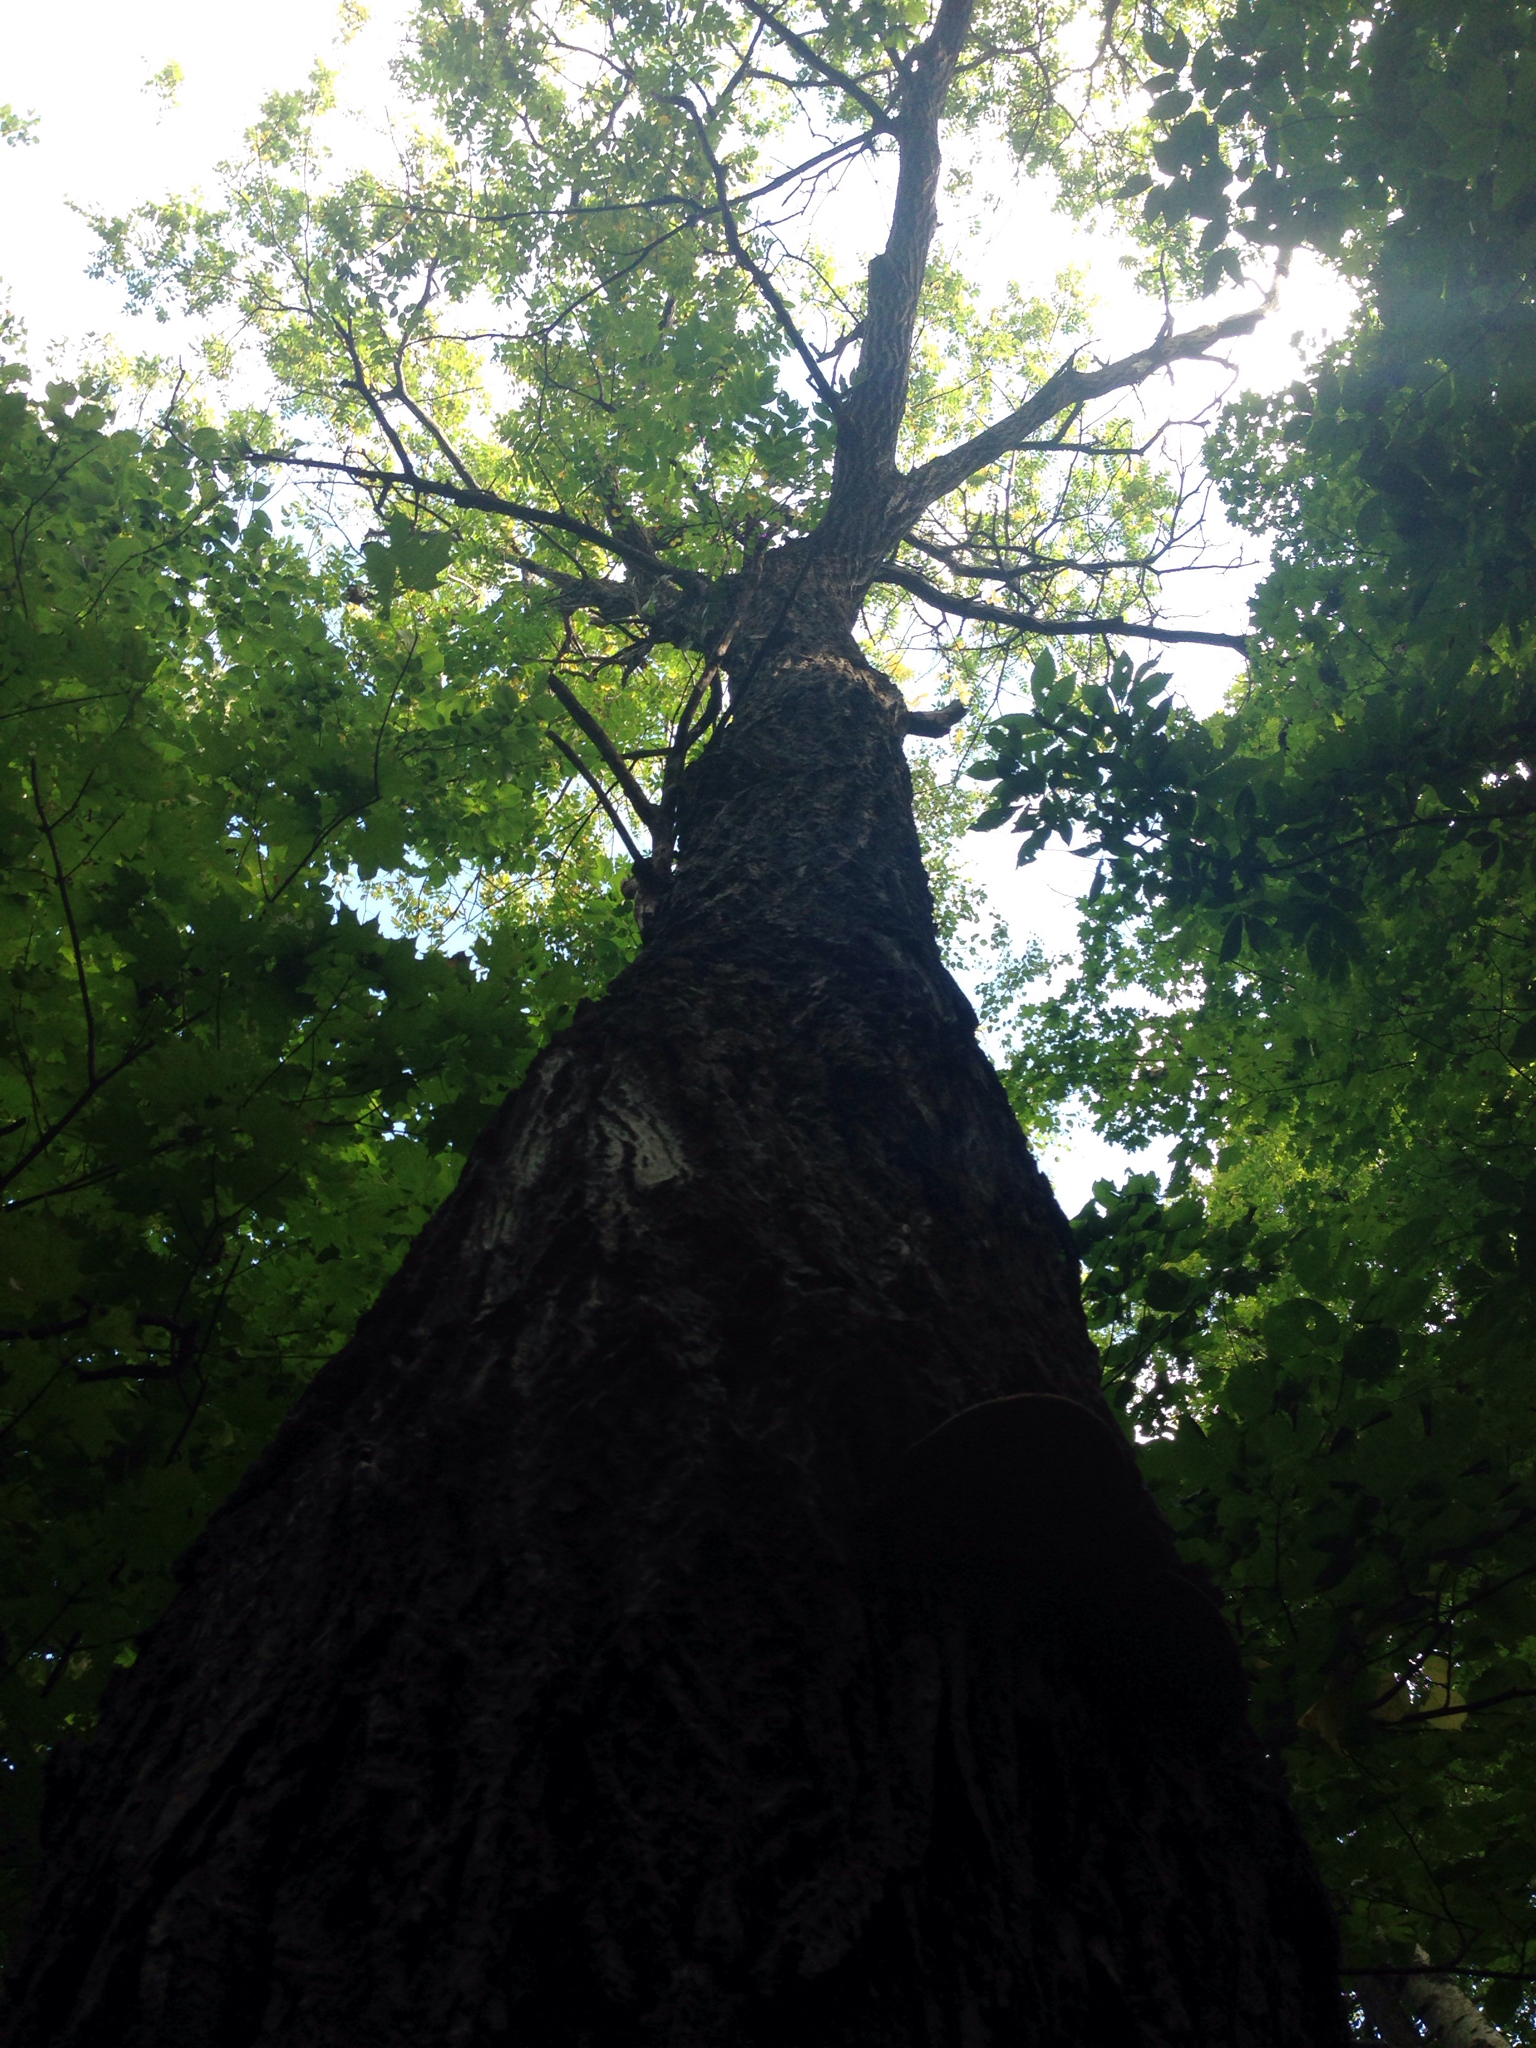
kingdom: Plantae
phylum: Tracheophyta
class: Magnoliopsida
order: Fagales
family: Juglandaceae
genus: Juglans
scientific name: Juglans cinerea
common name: Butternut
